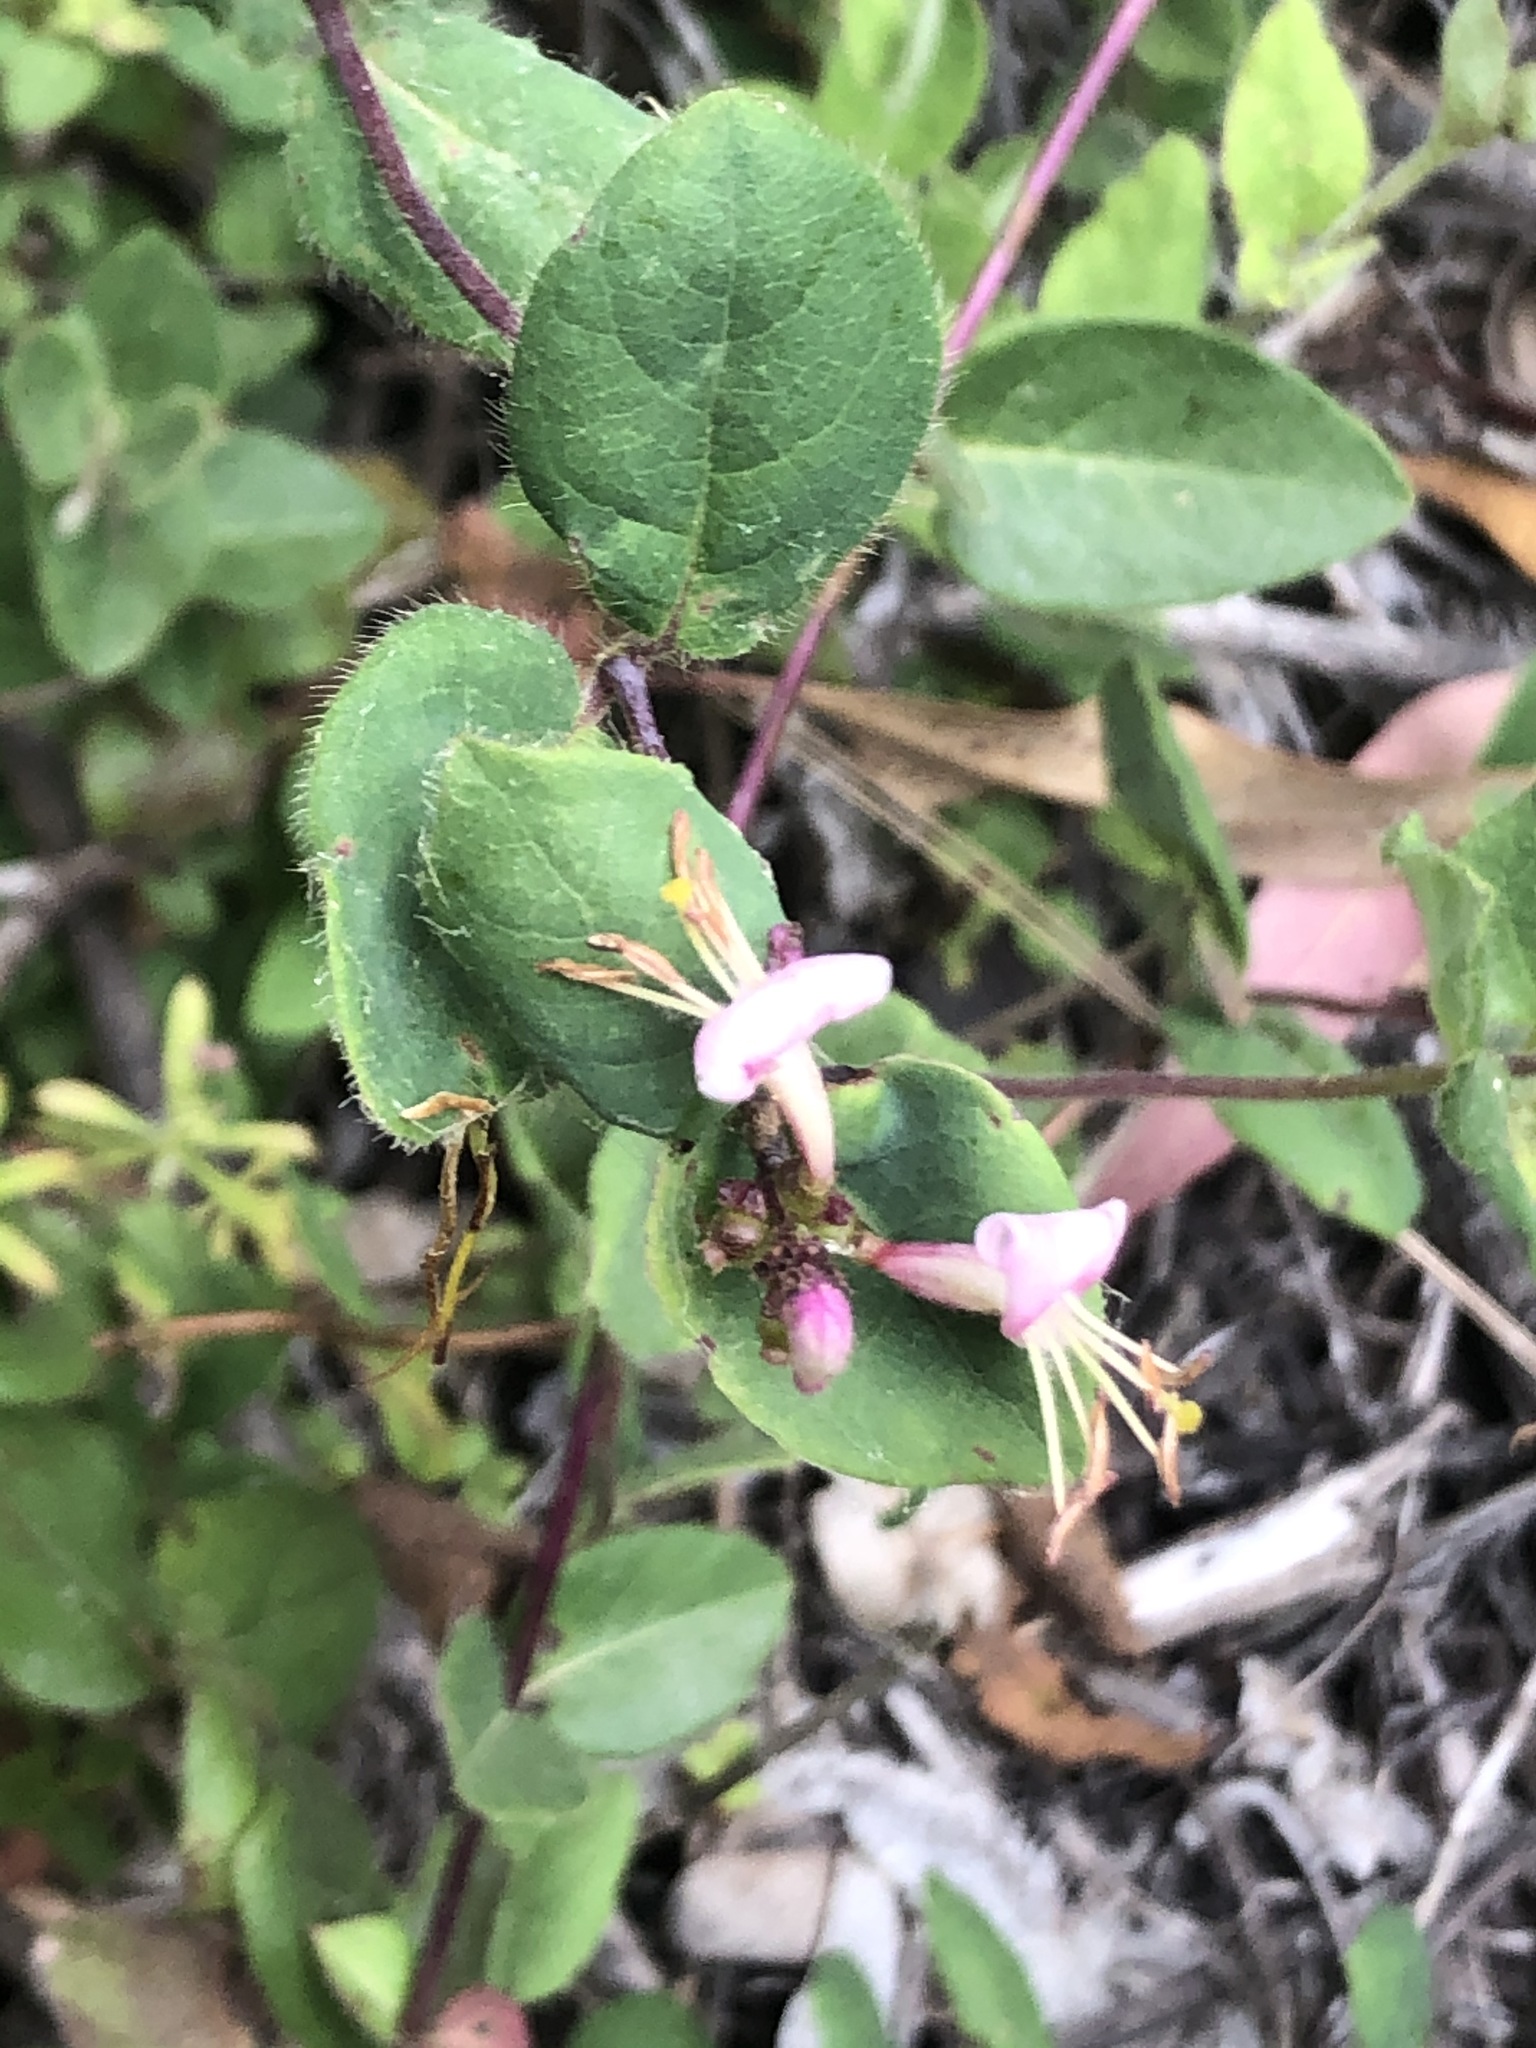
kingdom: Plantae
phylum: Tracheophyta
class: Magnoliopsida
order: Dipsacales
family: Caprifoliaceae
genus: Lonicera
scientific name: Lonicera hispidula
